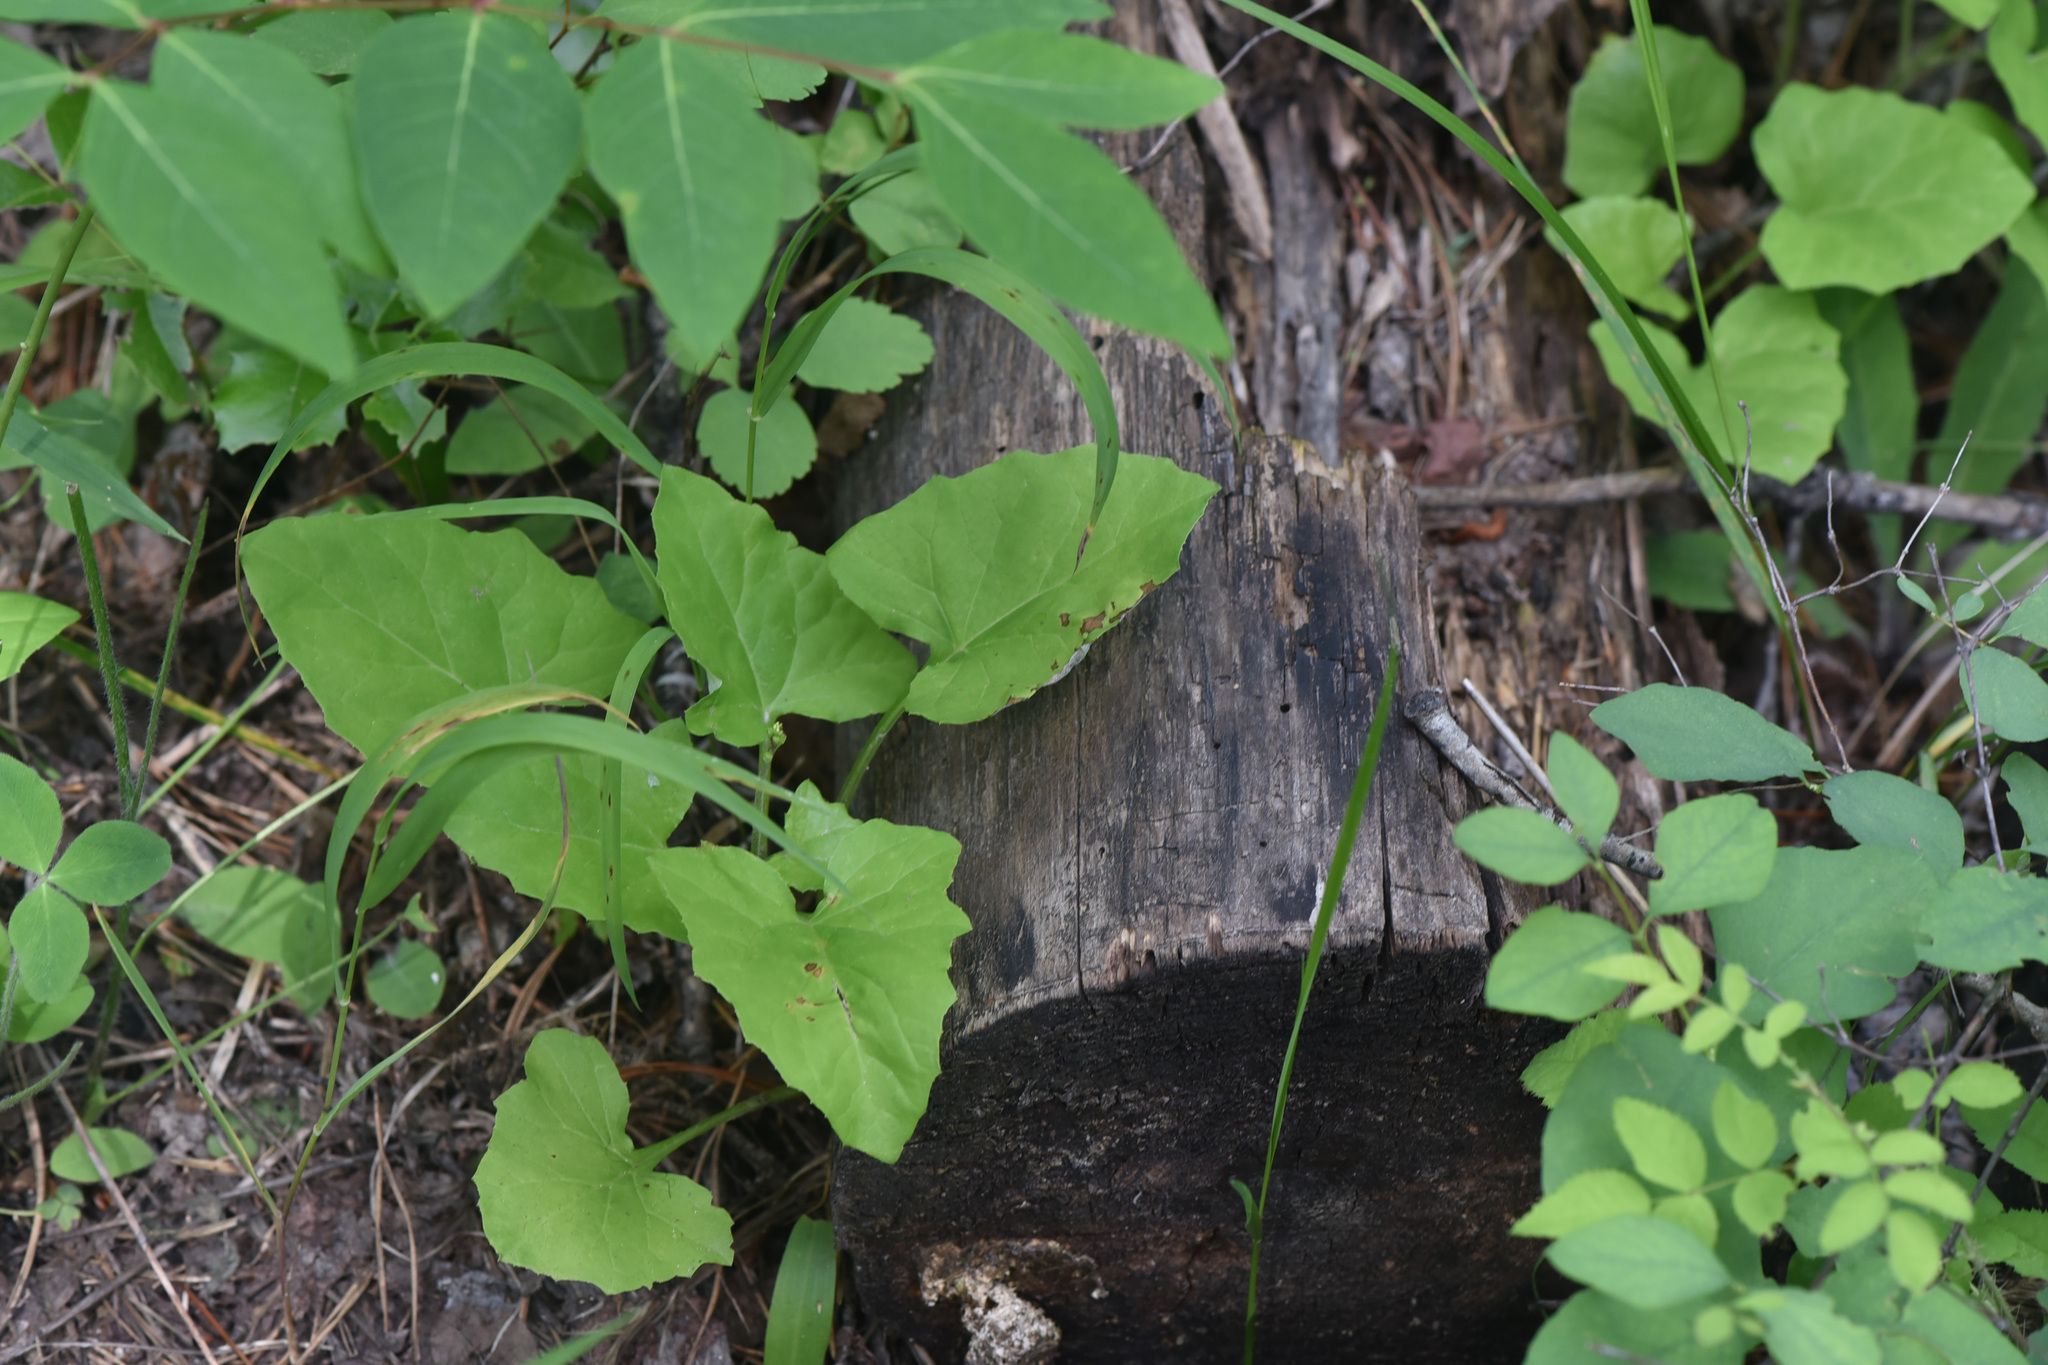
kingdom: Plantae
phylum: Tracheophyta
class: Magnoliopsida
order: Asterales
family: Asteraceae
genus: Adenocaulon
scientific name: Adenocaulon bicolor
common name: Trailplant
